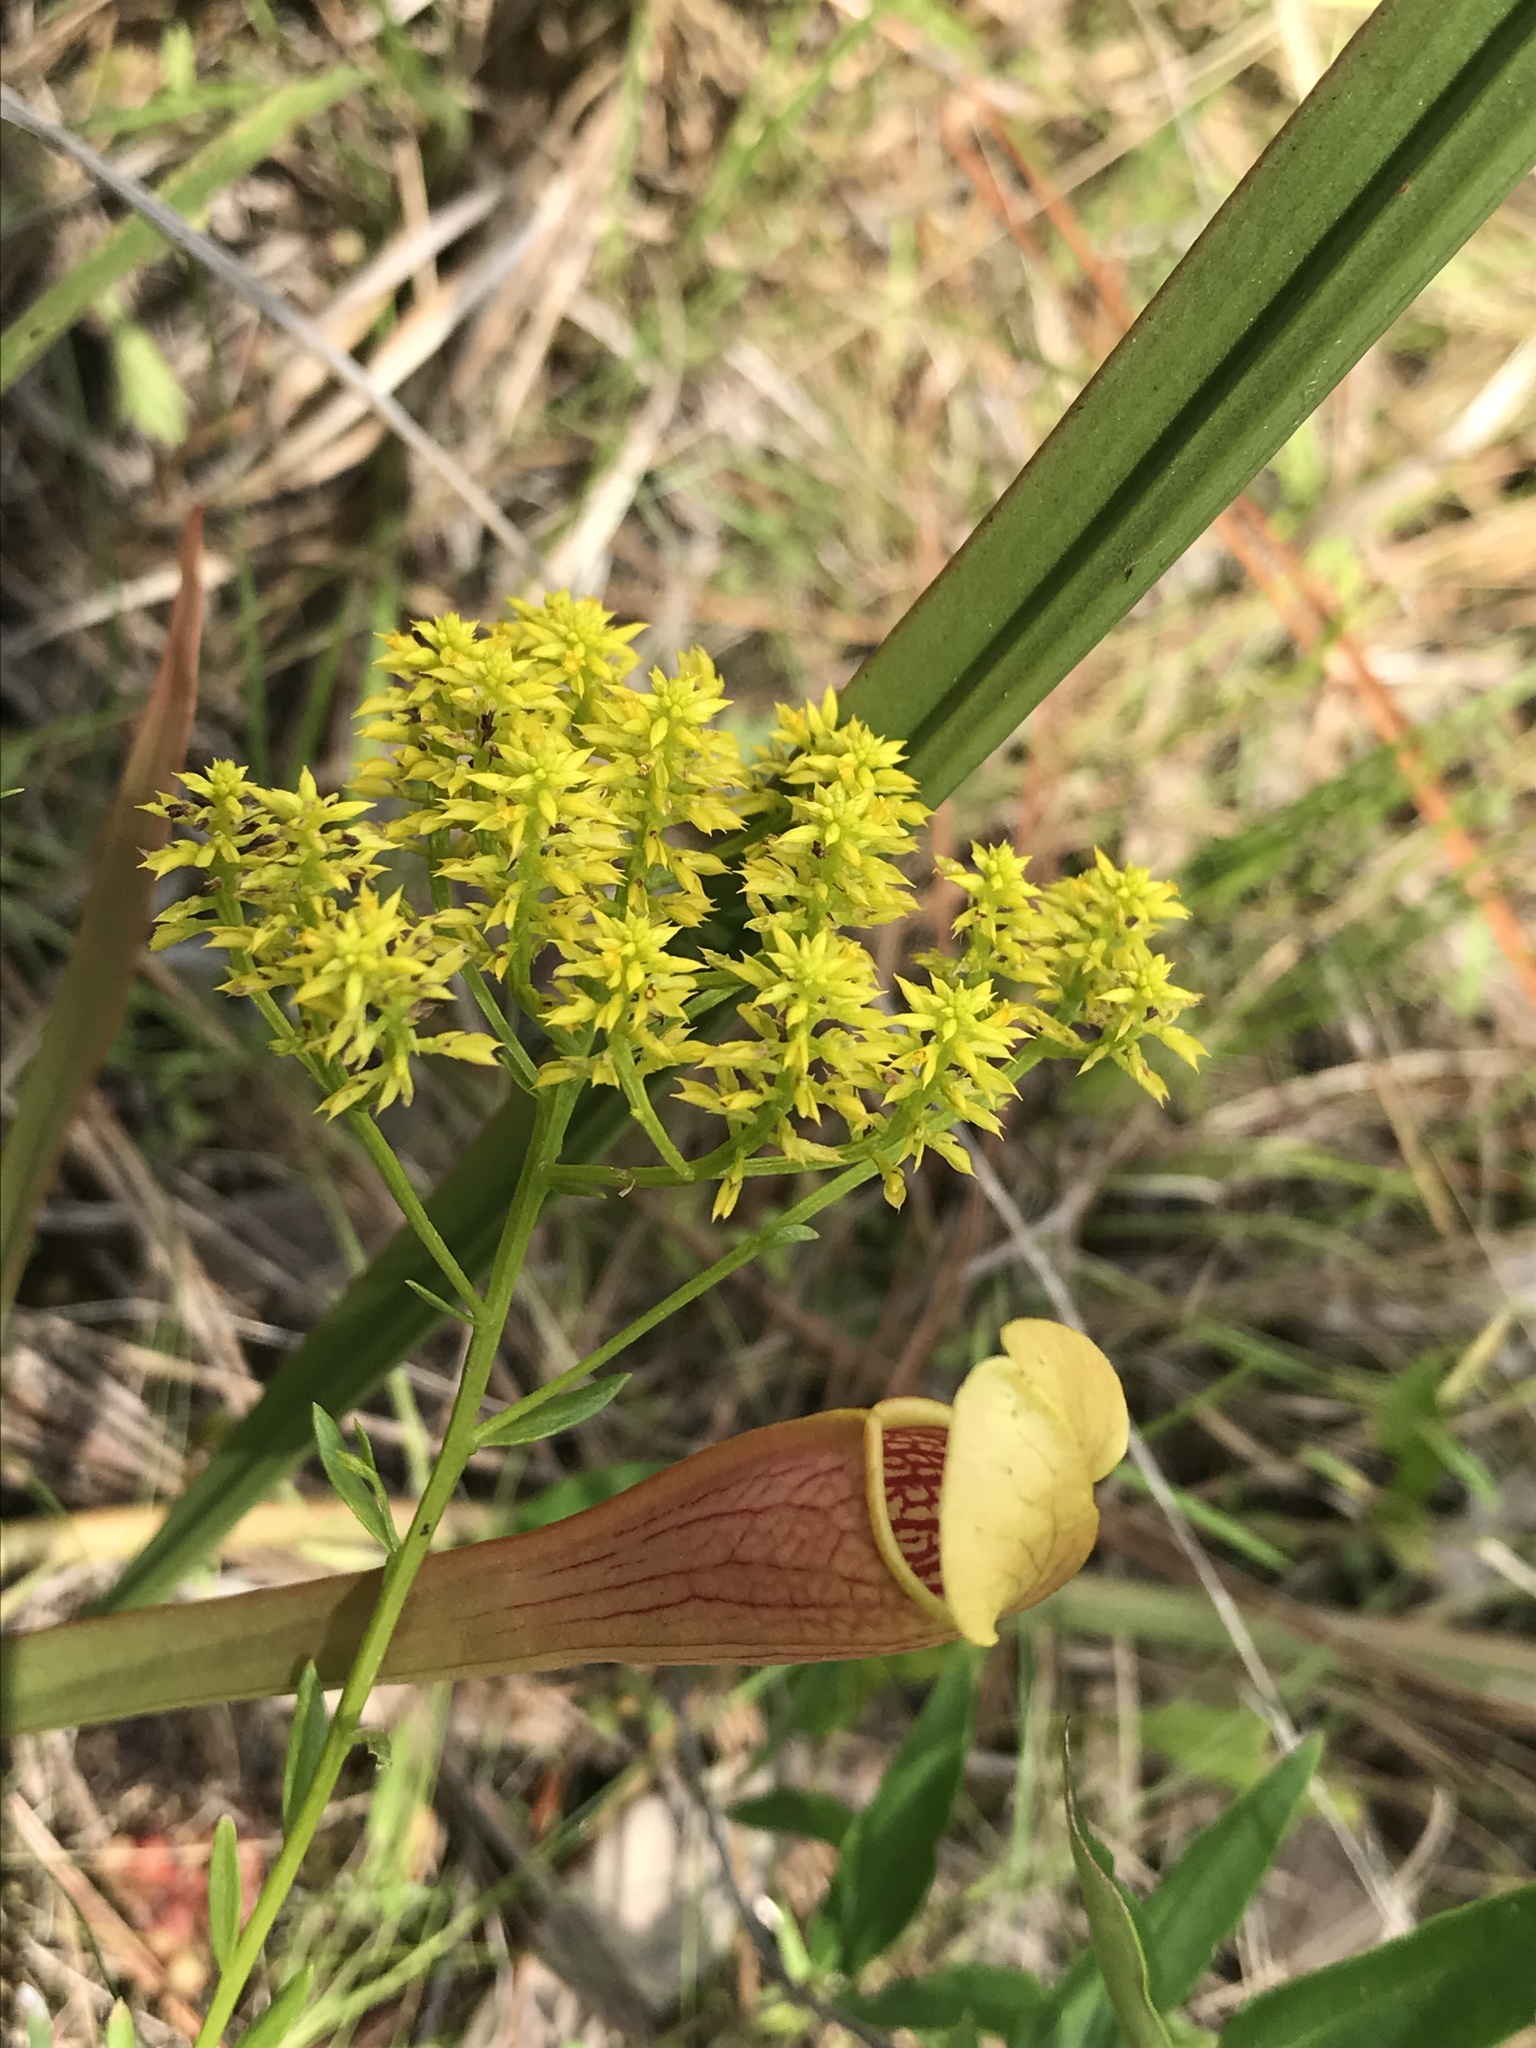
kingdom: Plantae
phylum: Tracheophyta
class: Magnoliopsida
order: Fabales
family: Polygalaceae
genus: Polygala
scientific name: Polygala ramosa
